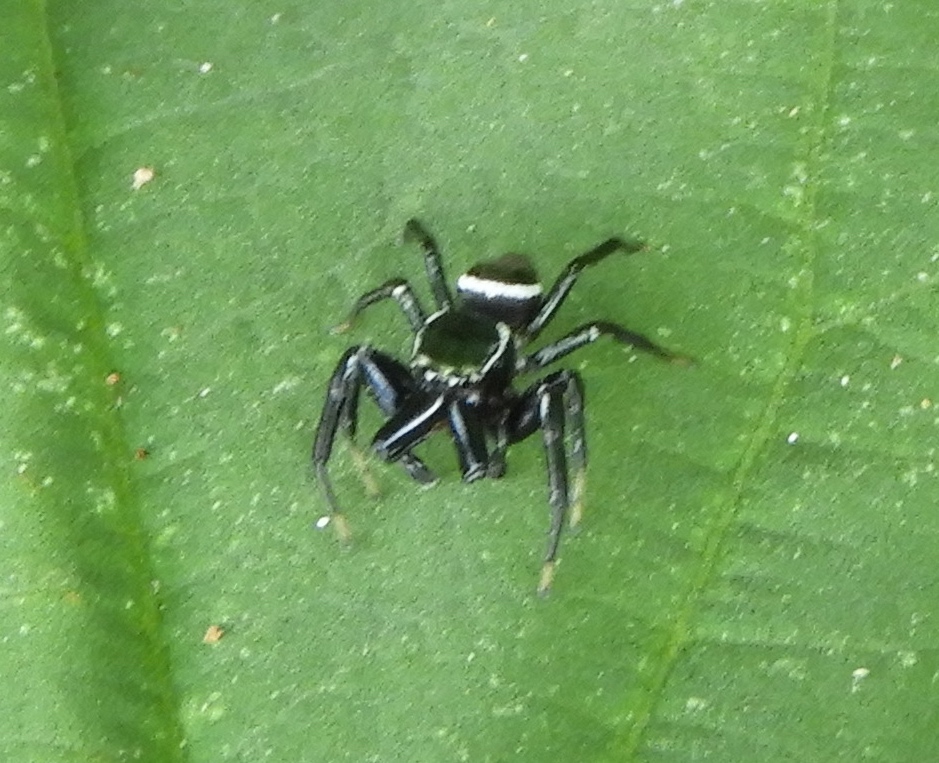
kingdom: Animalia
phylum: Arthropoda
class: Arachnida
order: Araneae
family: Salticidae
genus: Messua
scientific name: Messua limbata
